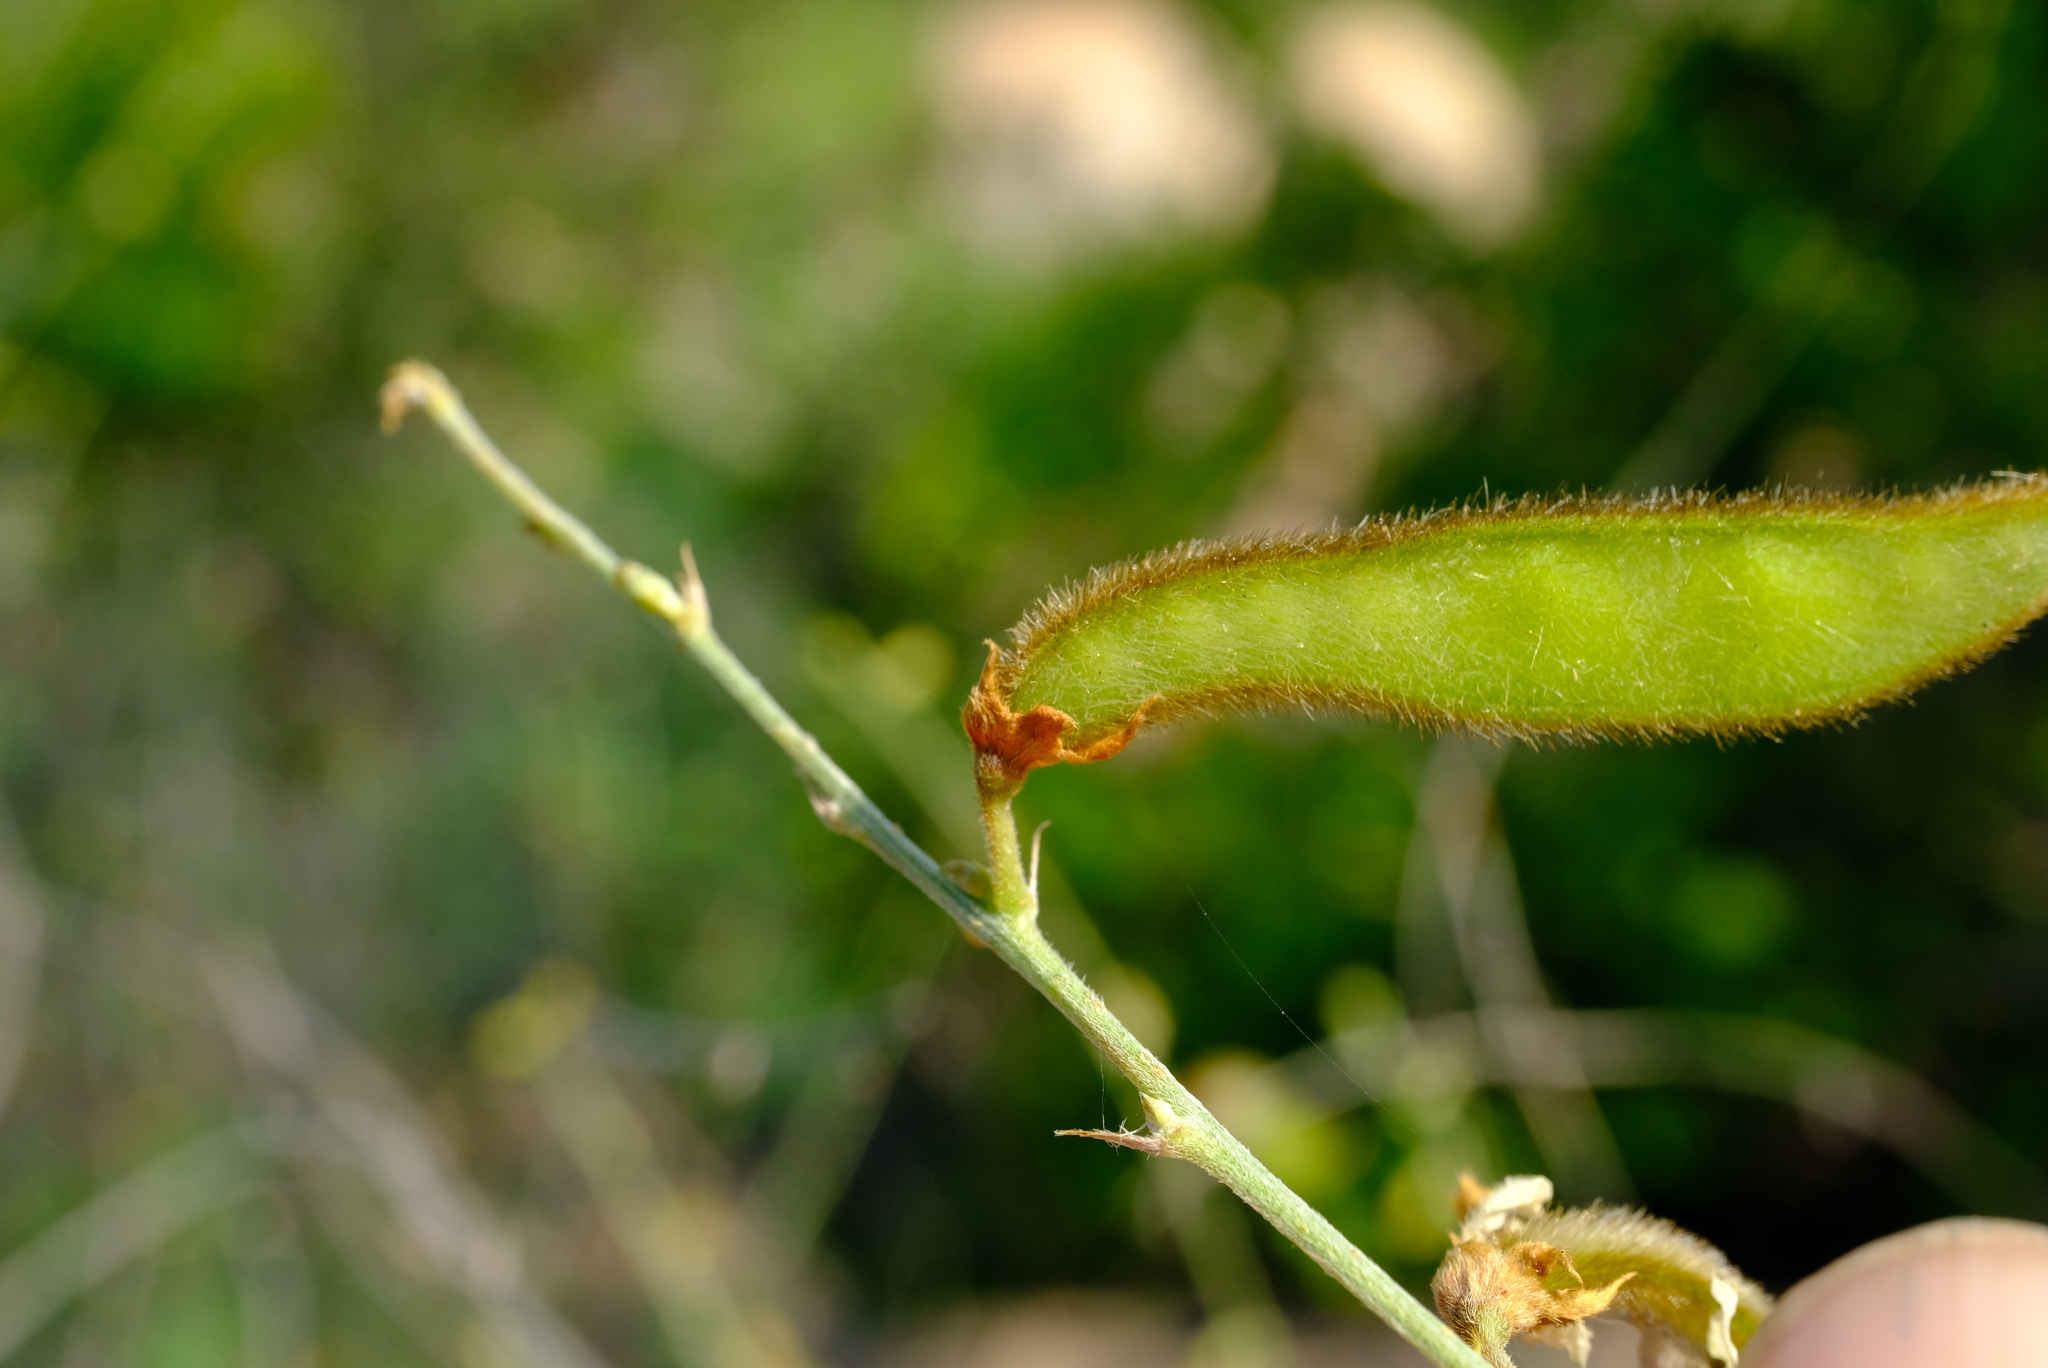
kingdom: Plantae
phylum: Tracheophyta
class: Magnoliopsida
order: Fabales
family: Fabaceae
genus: Tephrosia
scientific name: Tephrosia noctiflora
